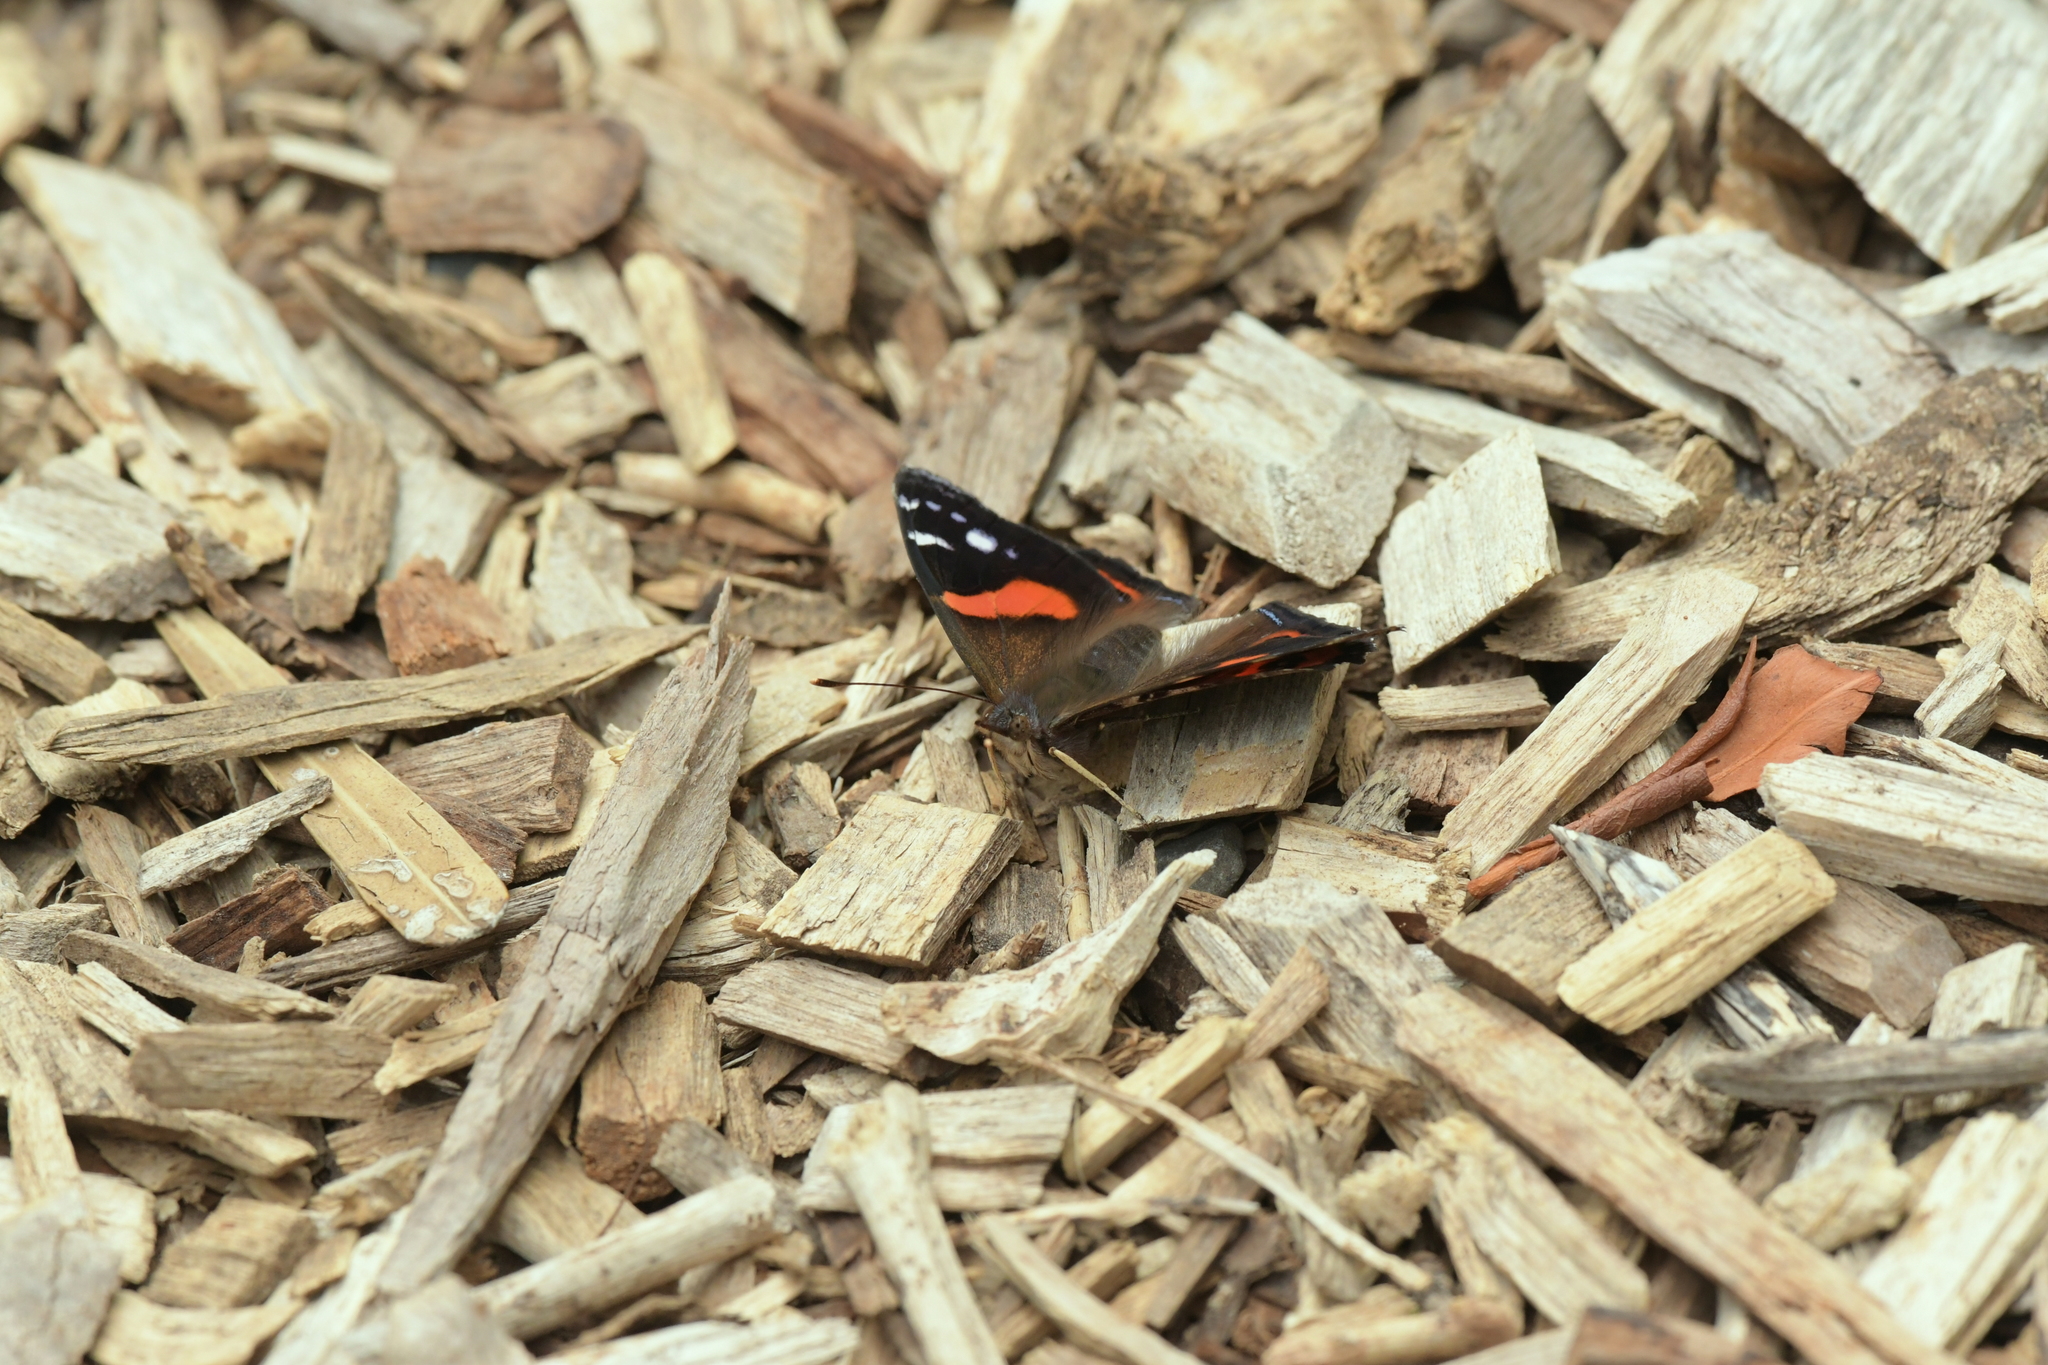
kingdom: Animalia
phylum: Arthropoda
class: Insecta
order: Lepidoptera
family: Nymphalidae
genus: Vanessa
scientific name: Vanessa gonerilla
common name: New zealand red admiral
